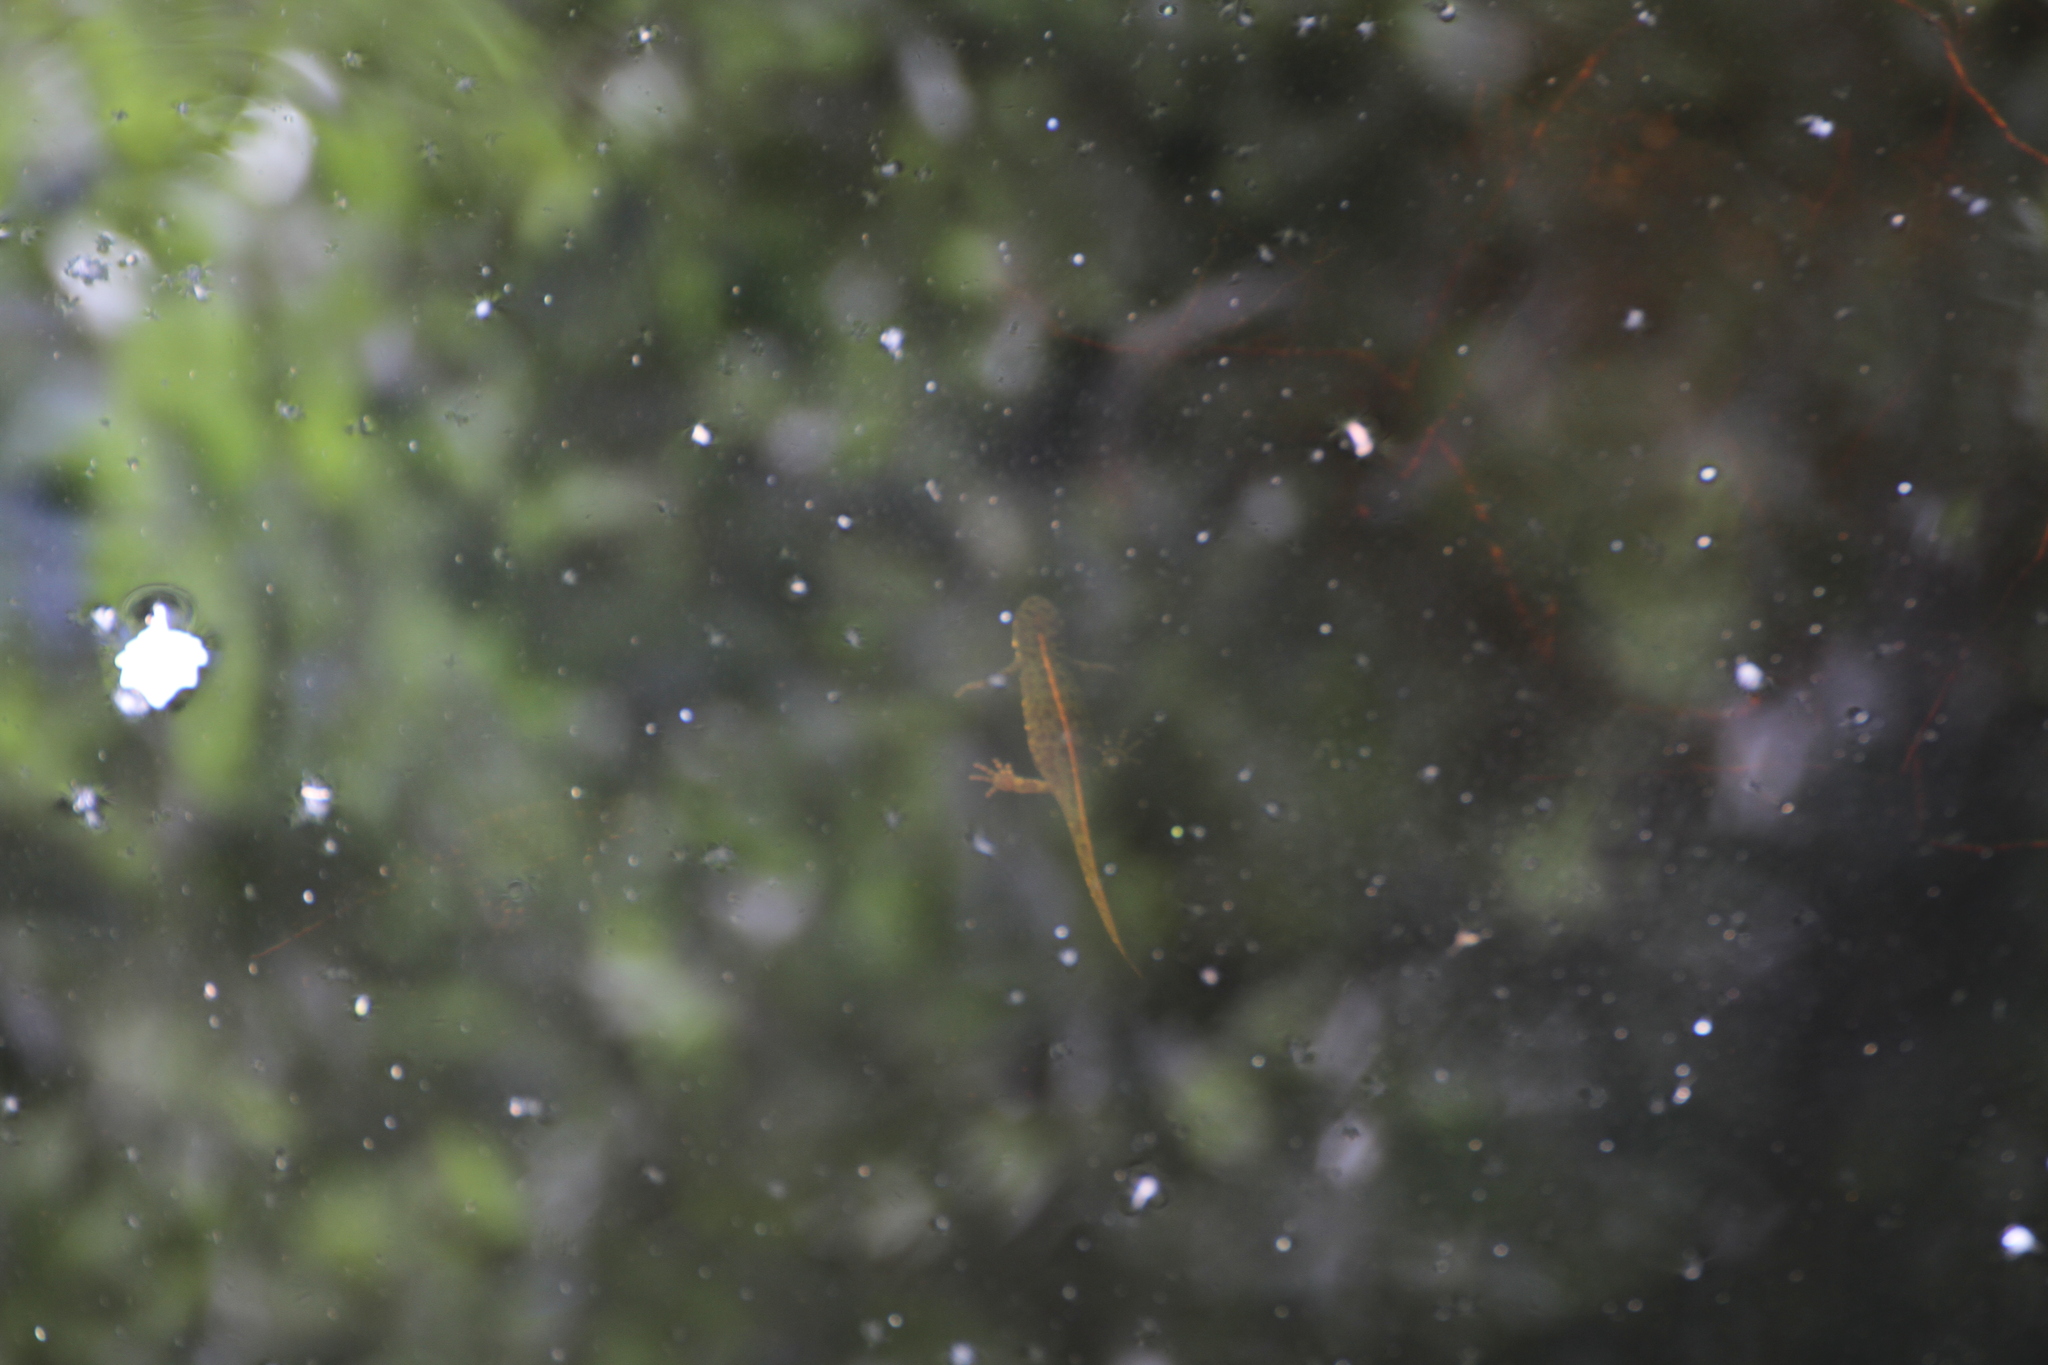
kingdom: Animalia
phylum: Chordata
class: Amphibia
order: Caudata
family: Salamandridae
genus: Triturus
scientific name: Triturus marmoratus
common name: Marbled newt
